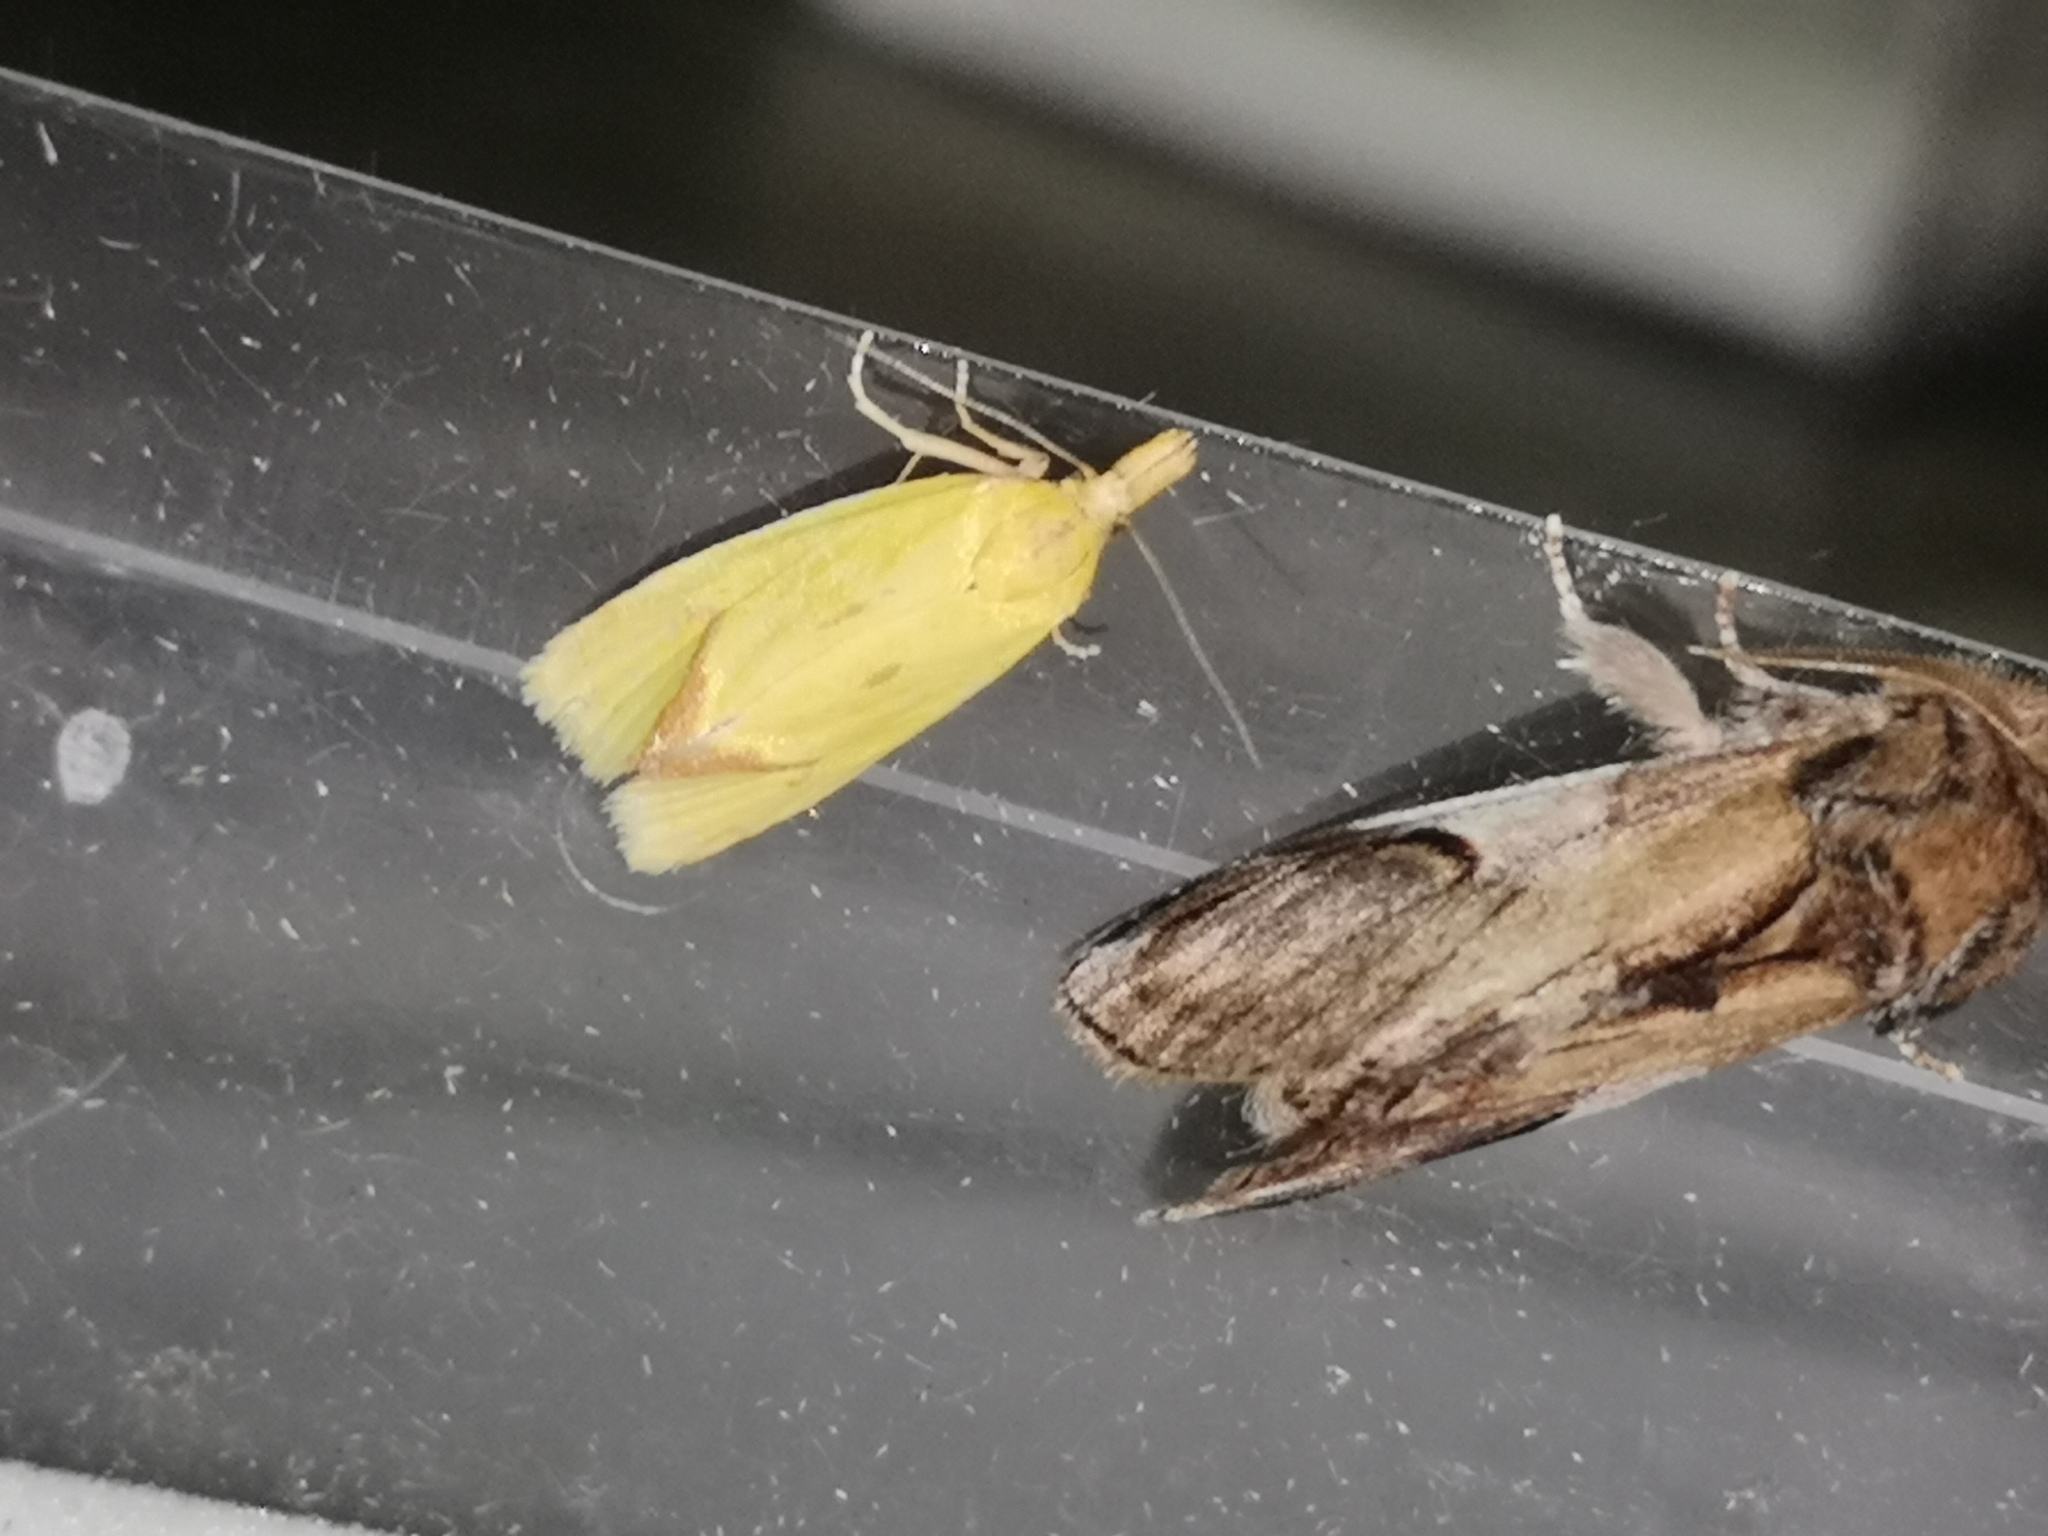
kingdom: Animalia
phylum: Arthropoda
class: Insecta
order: Lepidoptera
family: Tortricidae
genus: Agapeta
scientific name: Agapeta hamana
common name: Common yellow conch
